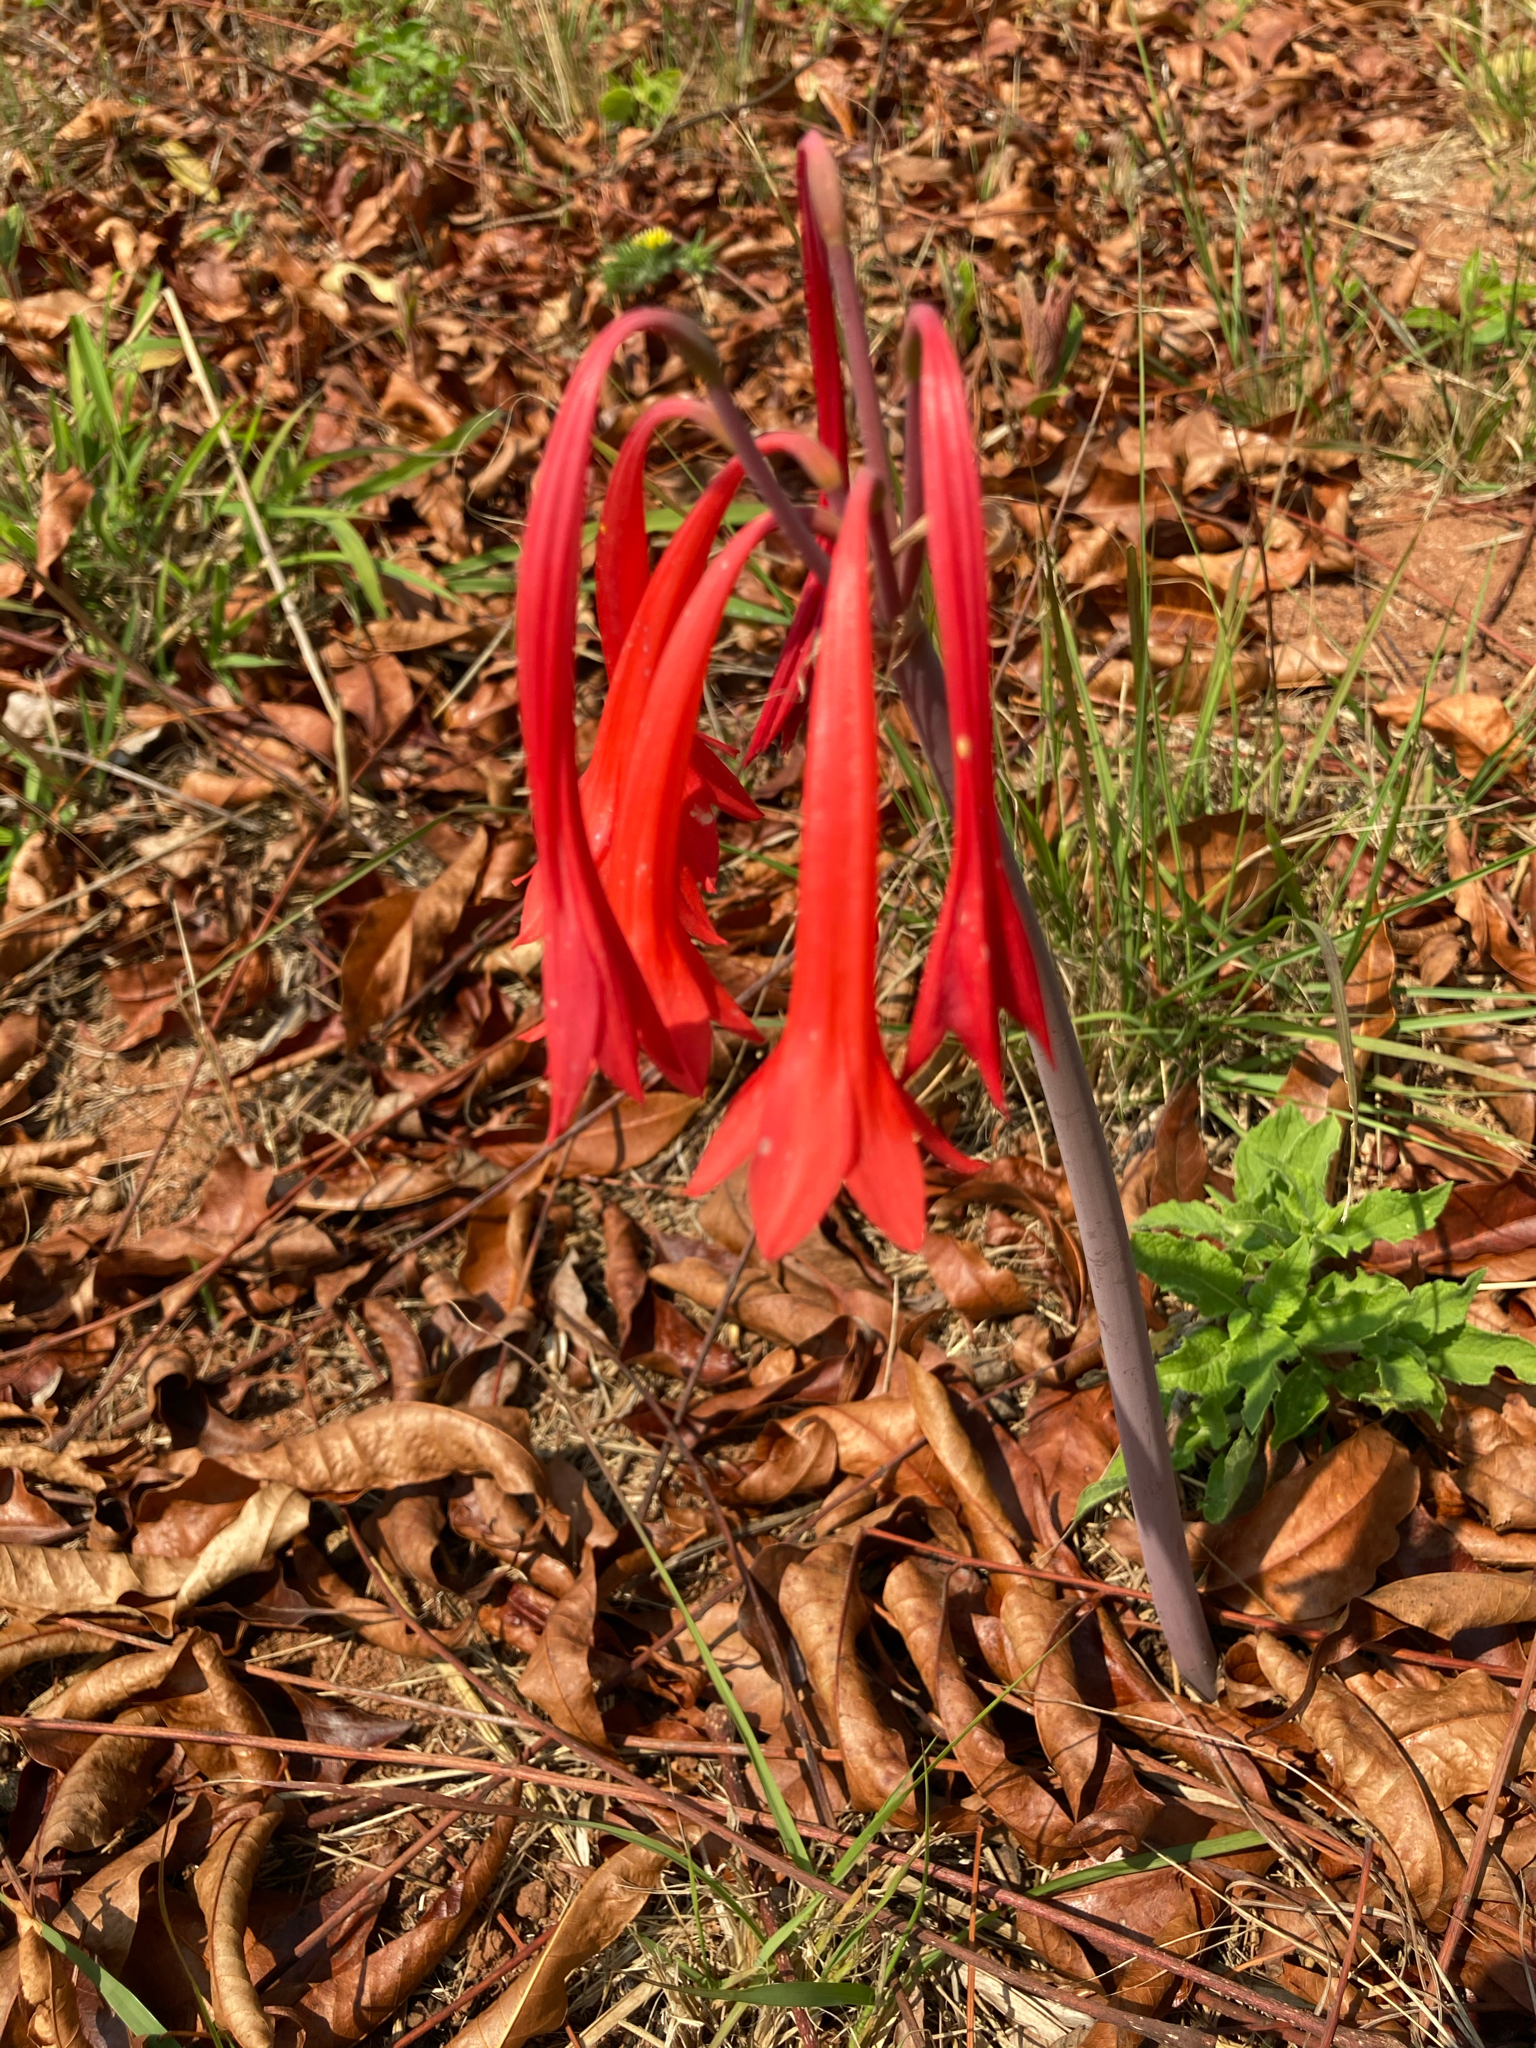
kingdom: Plantae
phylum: Tracheophyta
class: Liliopsida
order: Asparagales
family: Amaryllidaceae
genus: Cyrtanthus
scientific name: Cyrtanthus contractus
